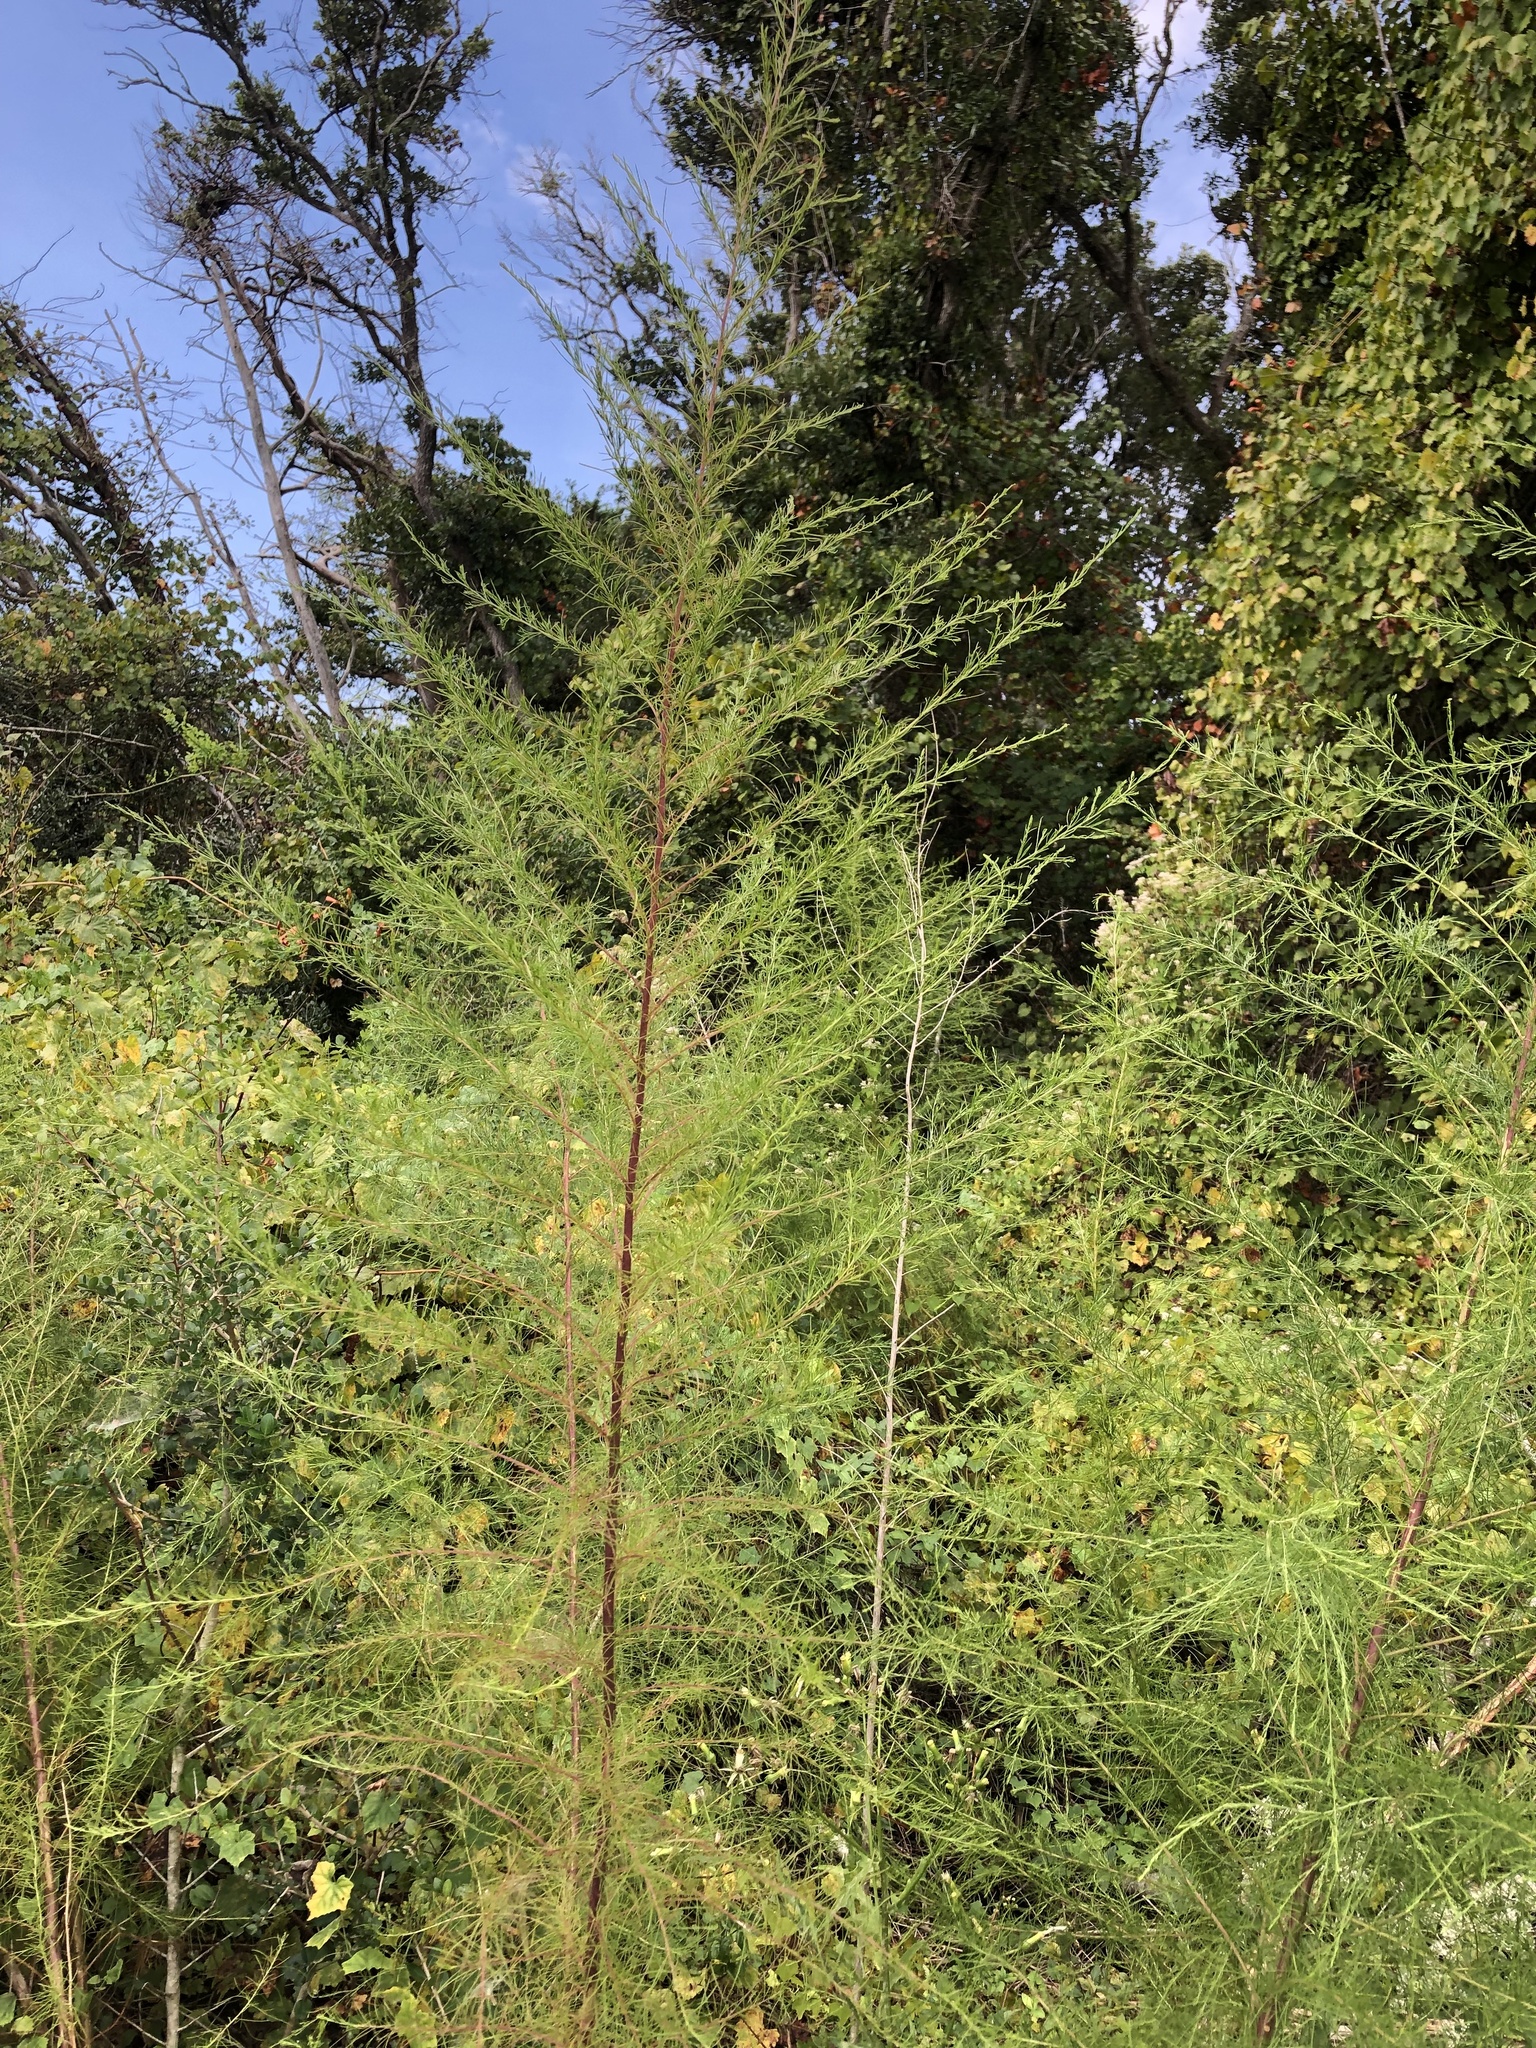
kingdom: Plantae
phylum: Tracheophyta
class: Magnoliopsida
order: Asterales
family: Asteraceae
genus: Eupatorium
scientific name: Eupatorium capillifolium
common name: Dog-fennel
